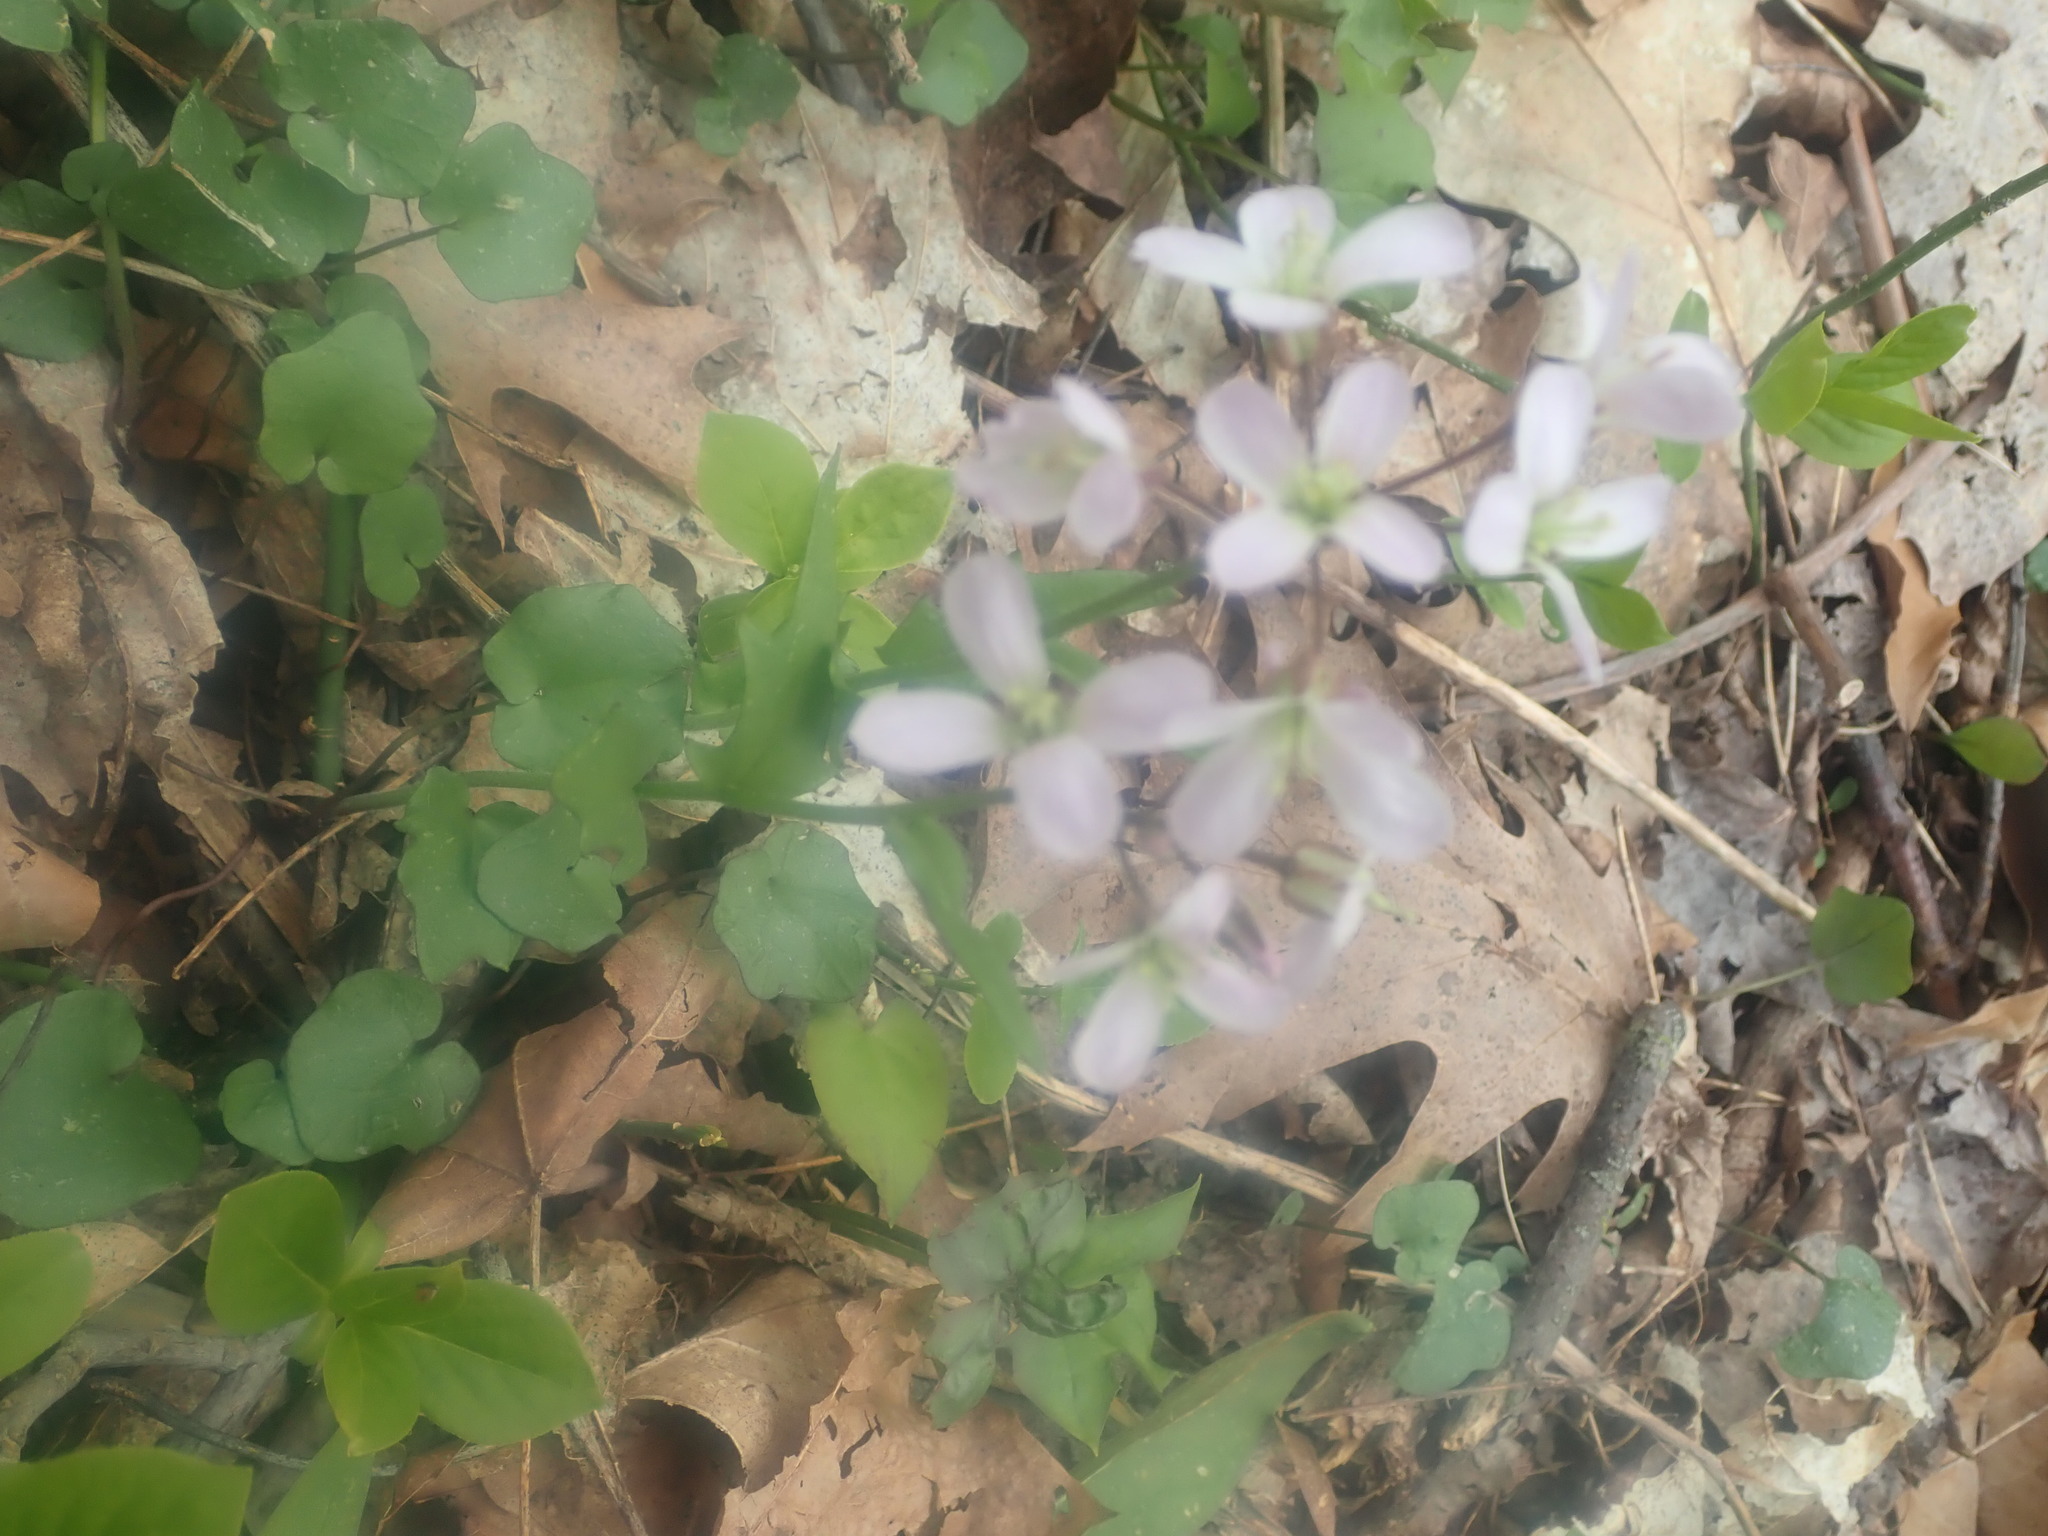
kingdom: Plantae
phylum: Tracheophyta
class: Magnoliopsida
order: Brassicales
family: Brassicaceae
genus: Cardamine
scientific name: Cardamine douglassii
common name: Purple cress
